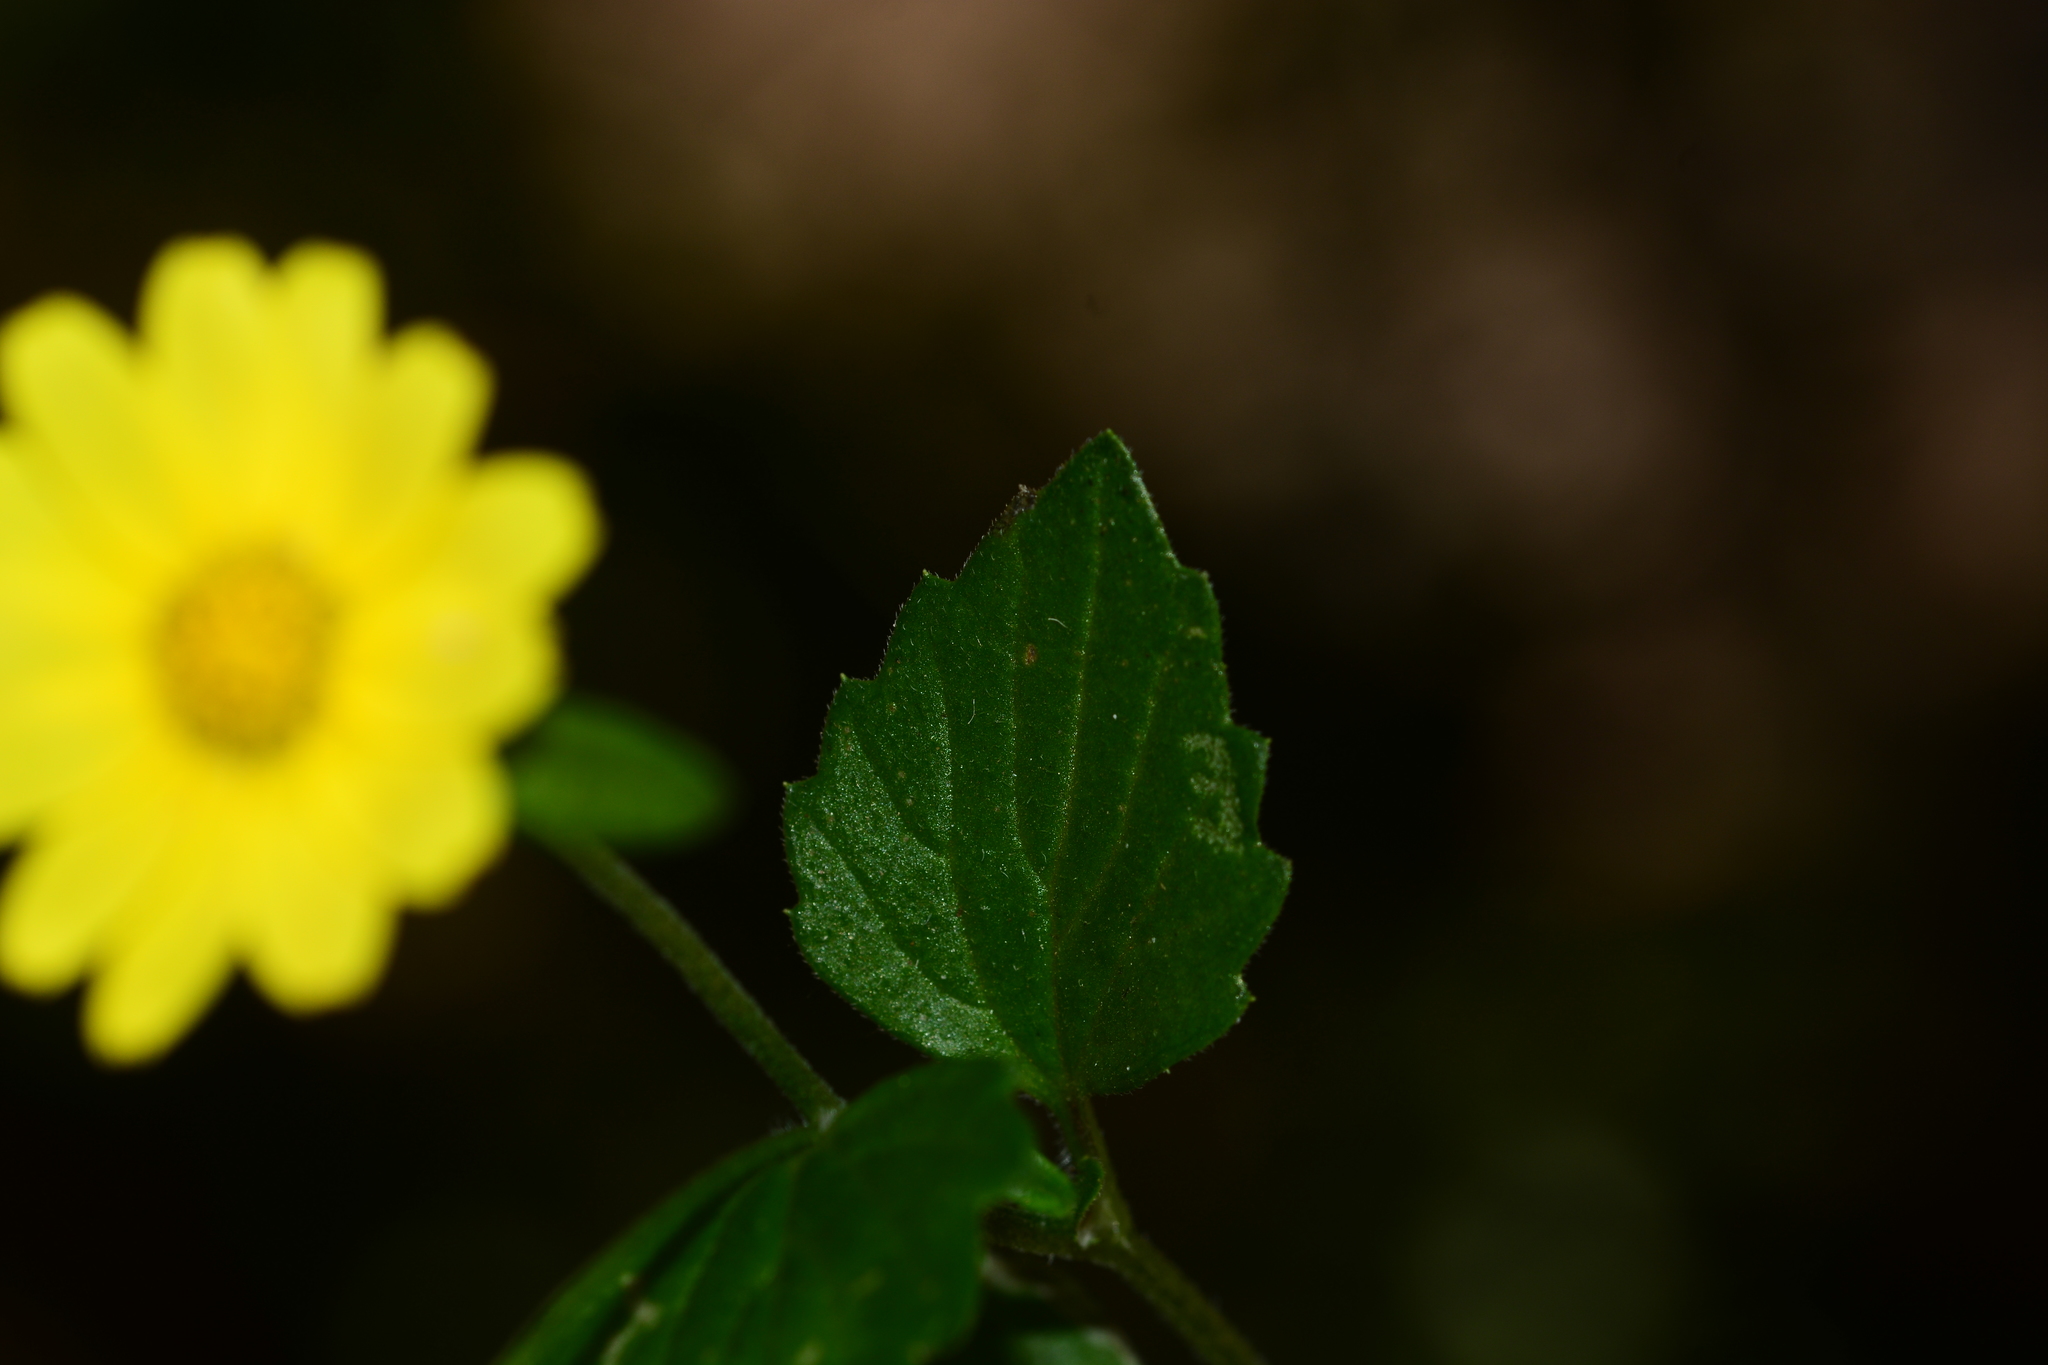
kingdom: Plantae
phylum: Tracheophyta
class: Magnoliopsida
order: Asterales
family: Asteraceae
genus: Senecio
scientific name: Senecio bombayensis
